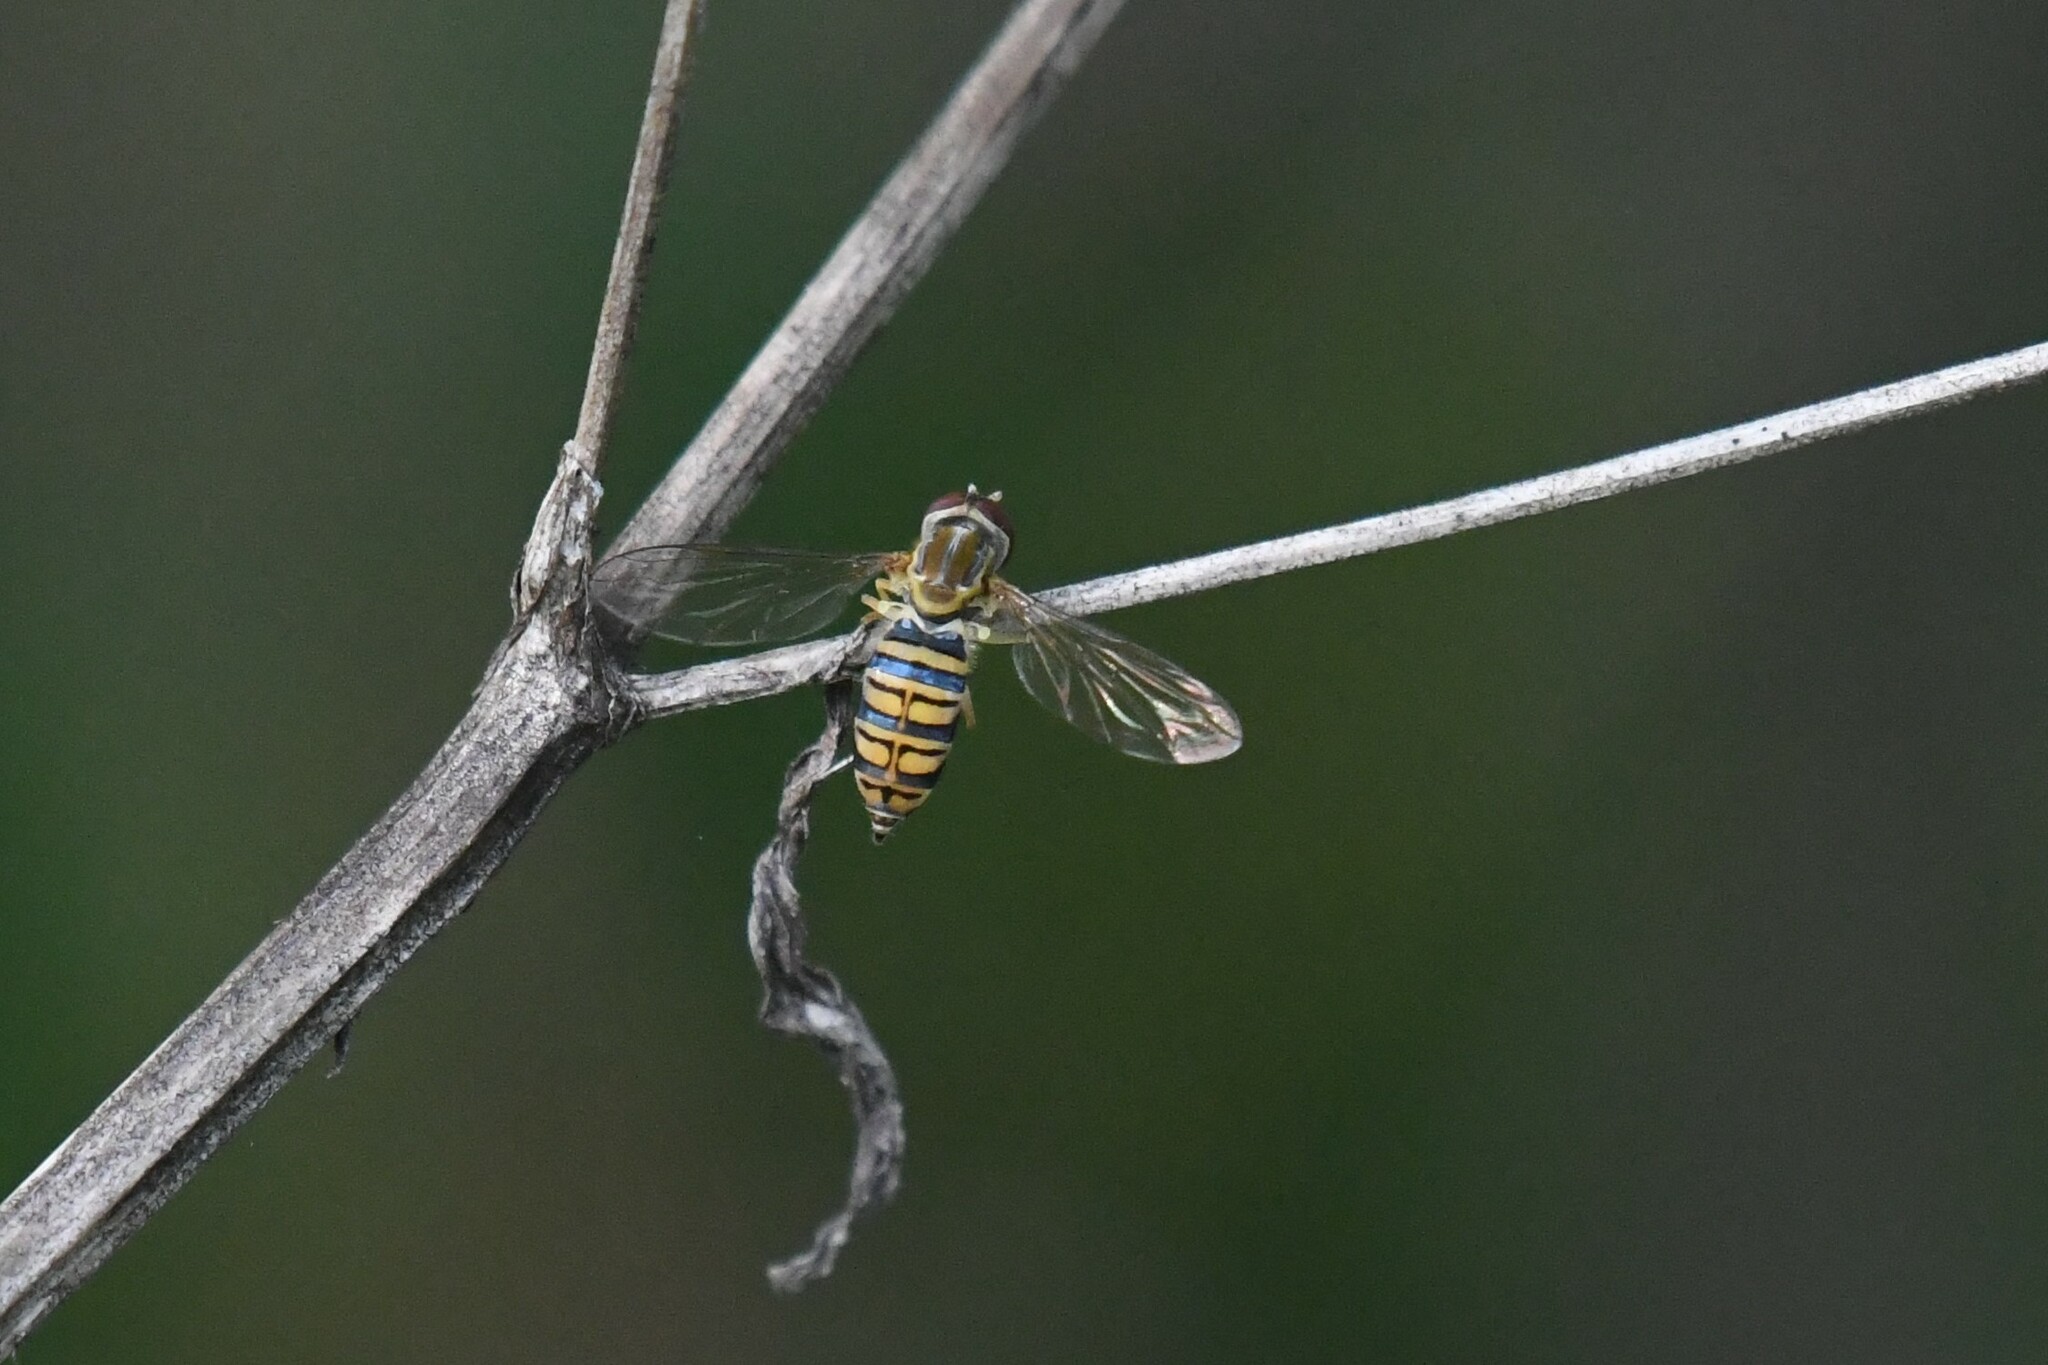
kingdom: Animalia
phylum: Arthropoda
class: Insecta
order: Diptera
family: Syrphidae
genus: Toxomerus
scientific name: Toxomerus politus
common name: Maize calligrapher
